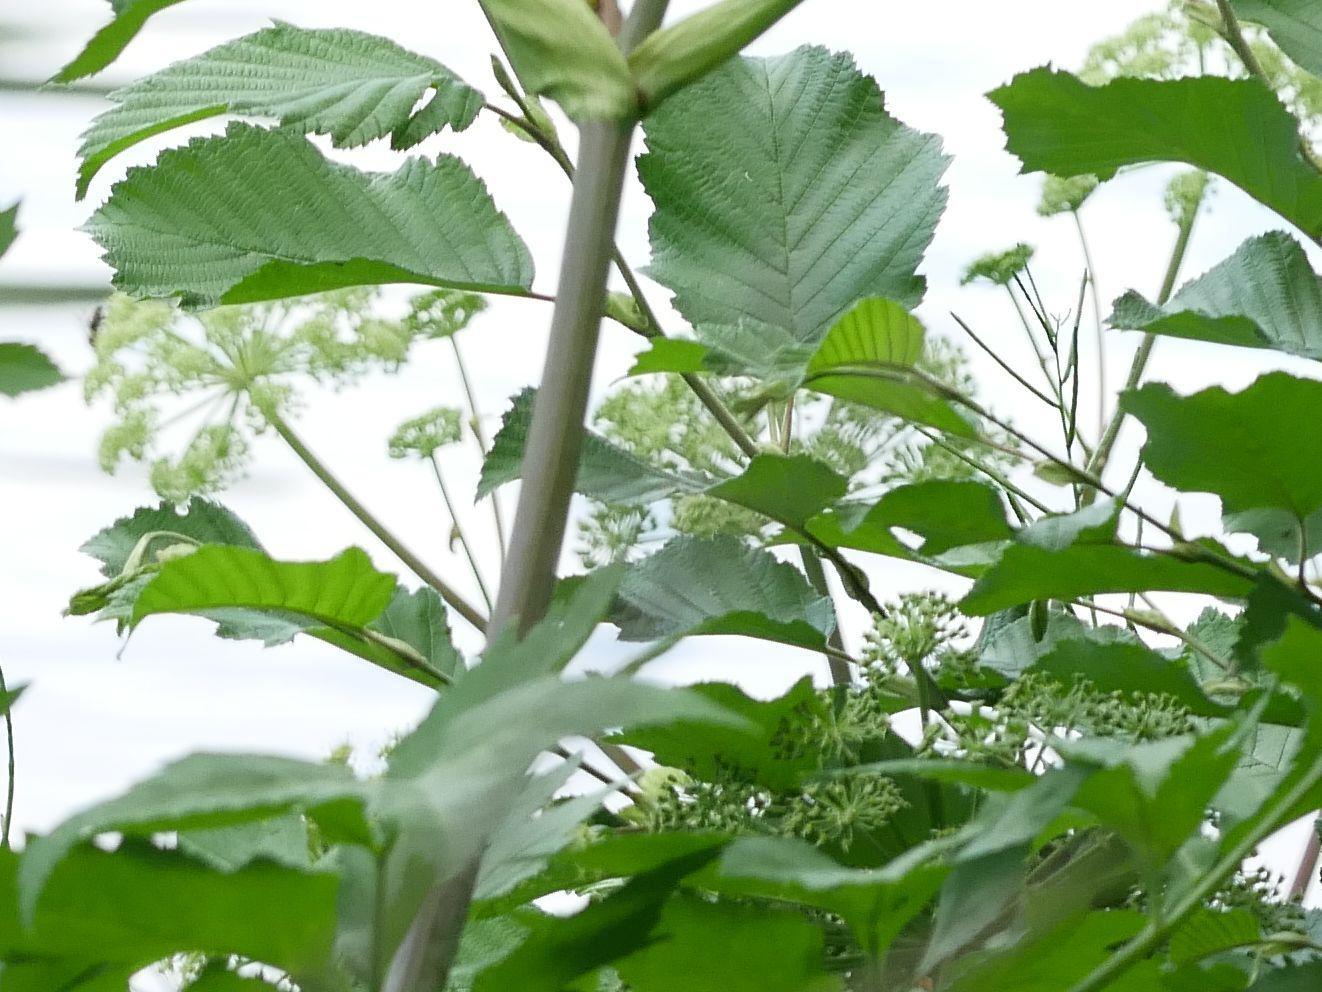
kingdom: Plantae
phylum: Tracheophyta
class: Magnoliopsida
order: Fagales
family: Betulaceae
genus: Alnus
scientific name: Alnus glutinosa
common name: Black alder
